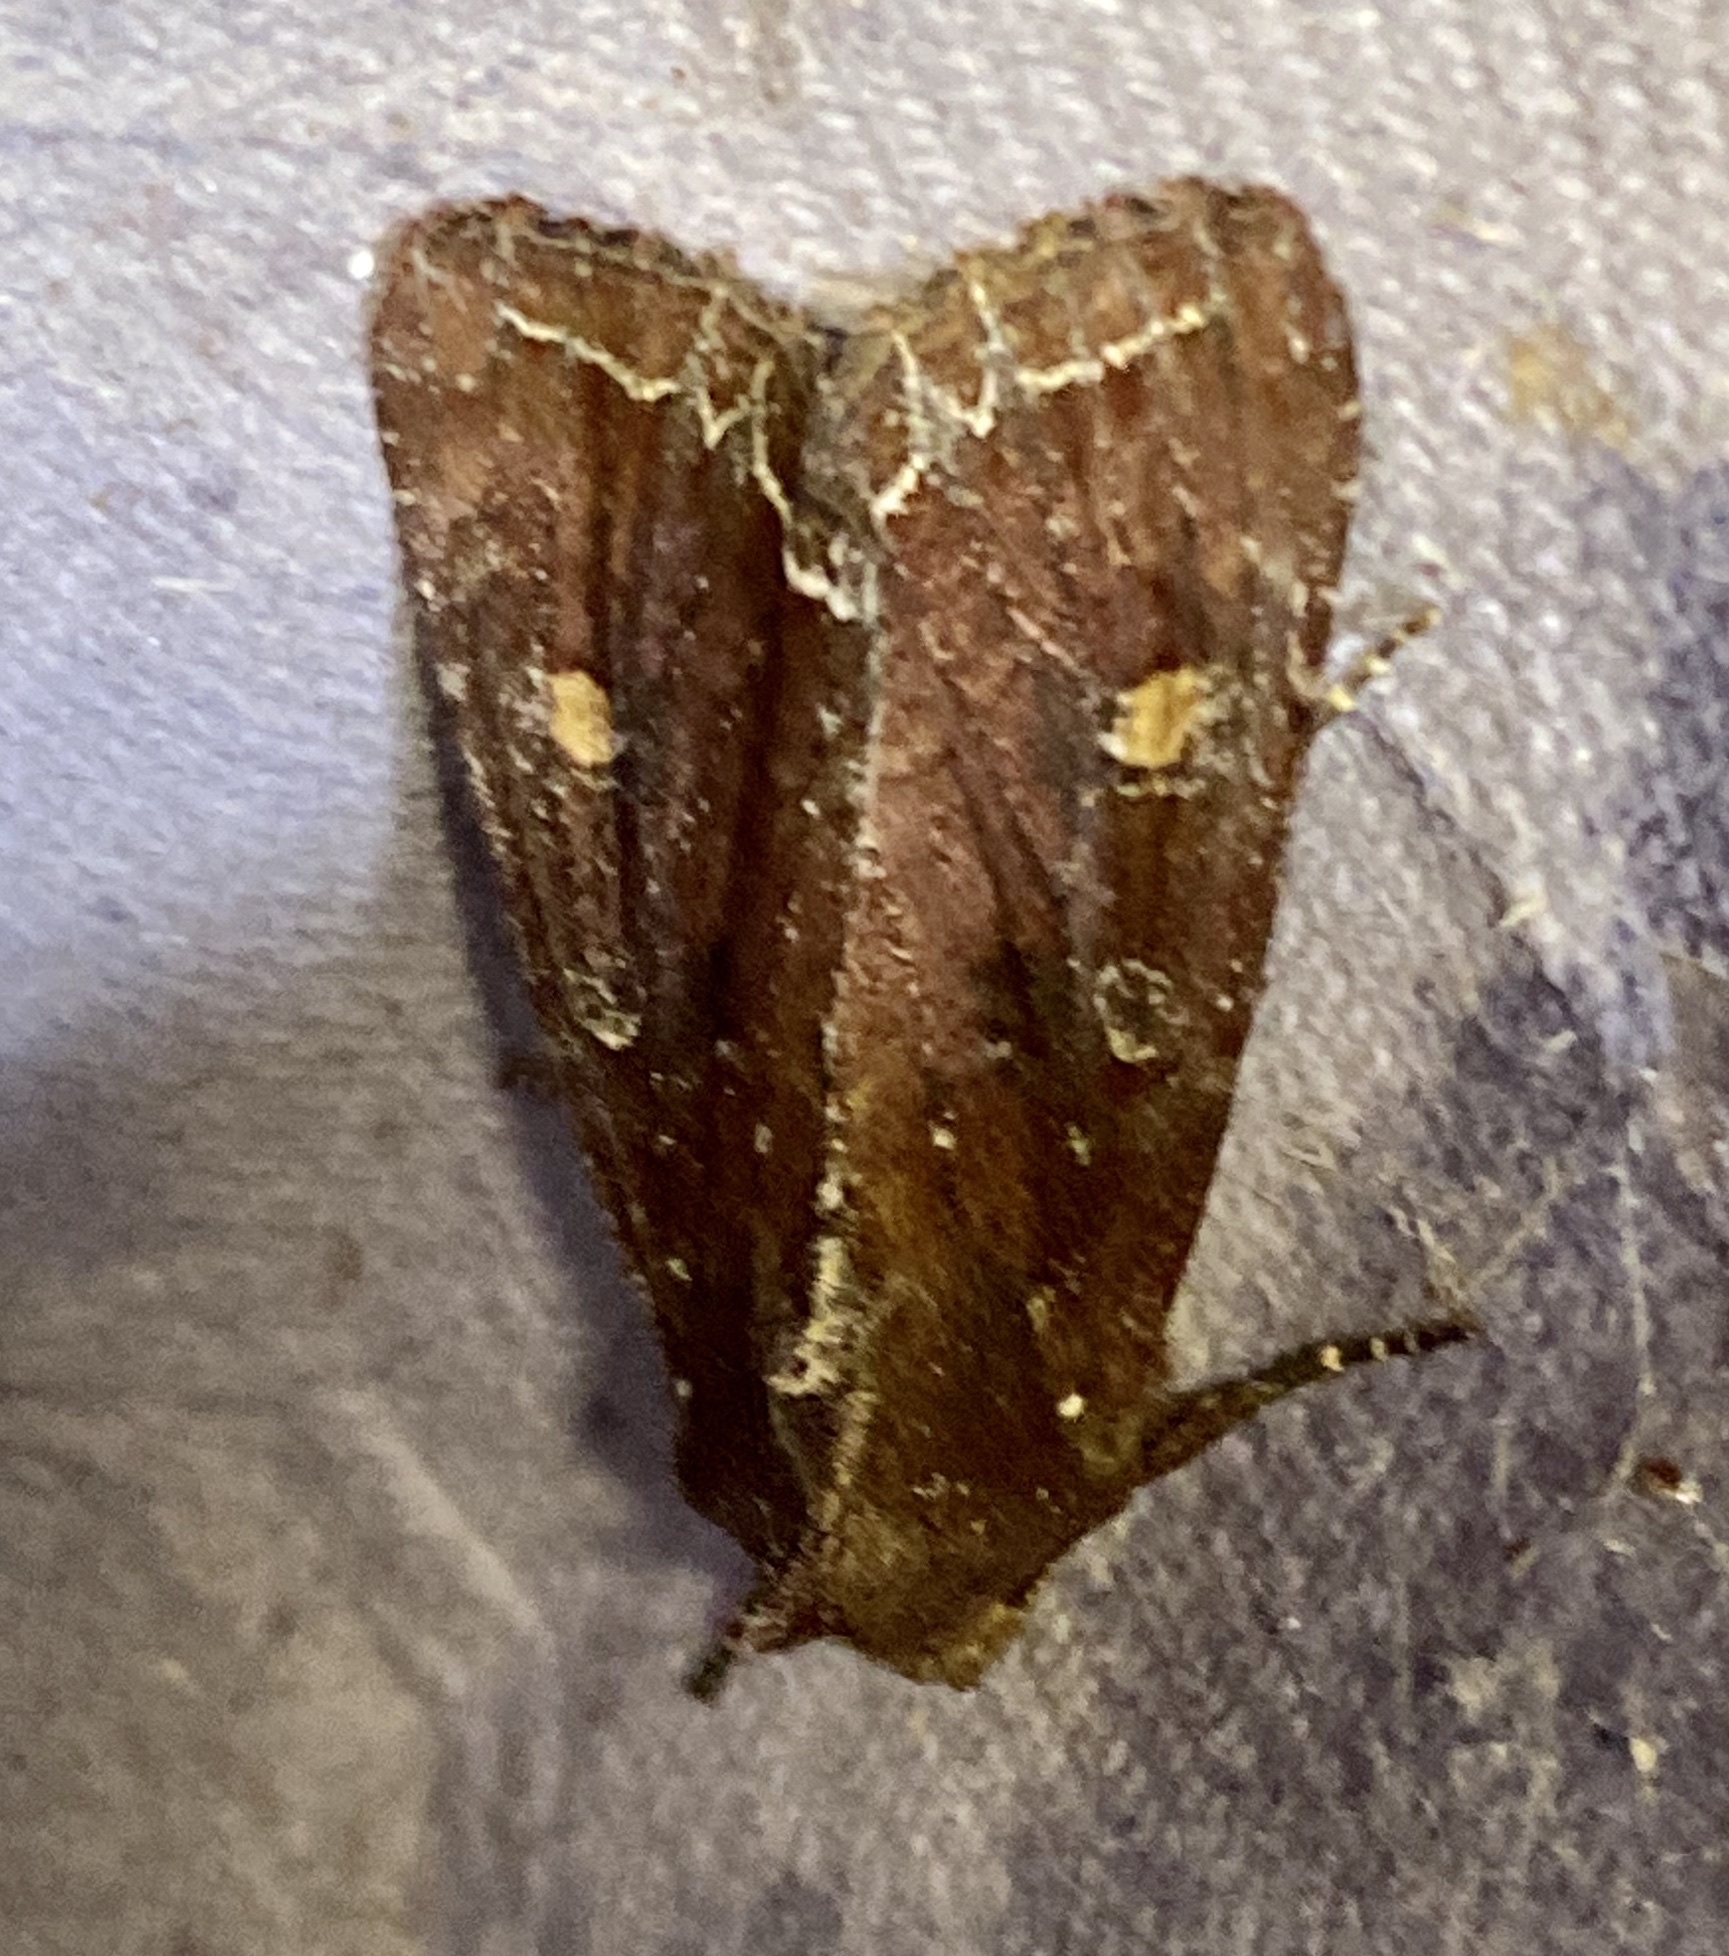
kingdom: Animalia
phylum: Arthropoda
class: Insecta
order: Lepidoptera
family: Noctuidae
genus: Lacanobia
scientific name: Lacanobia oleracea
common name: Bright-line brown-eye
